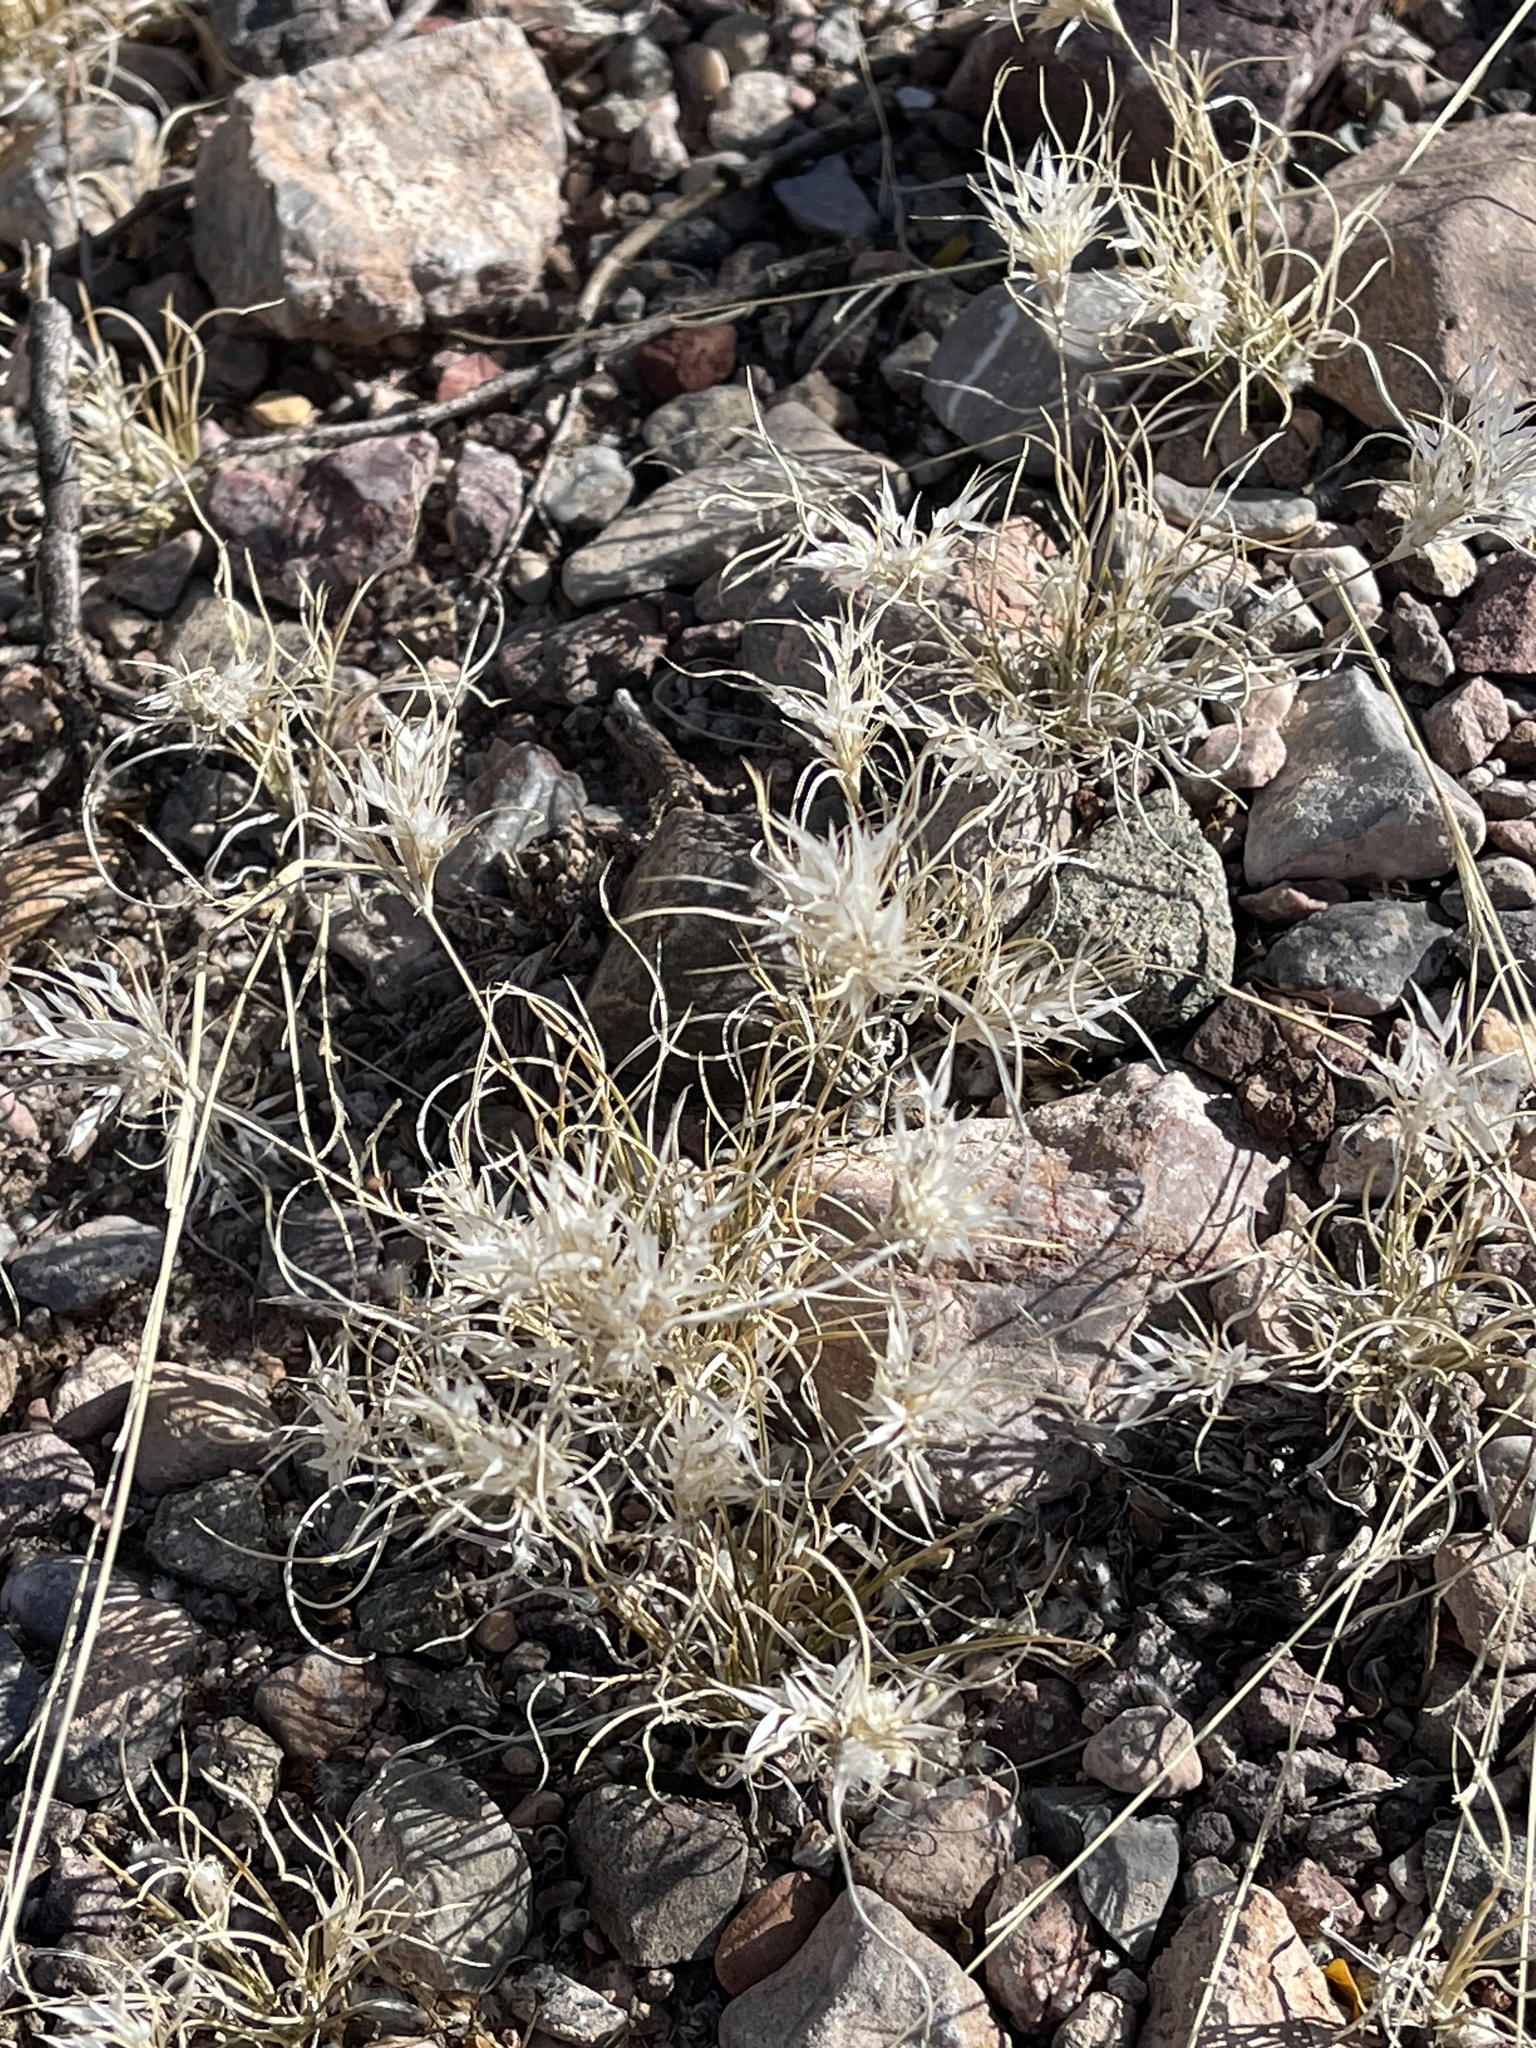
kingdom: Plantae
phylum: Tracheophyta
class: Liliopsida
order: Poales
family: Poaceae
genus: Dasyochloa
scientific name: Dasyochloa pulchella
